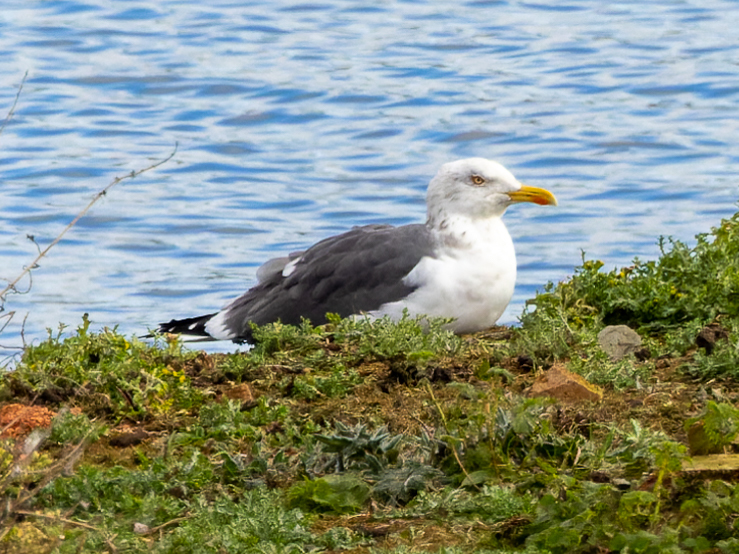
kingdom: Animalia
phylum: Chordata
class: Aves
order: Charadriiformes
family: Laridae
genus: Larus
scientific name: Larus fuscus
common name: Lesser black-backed gull
